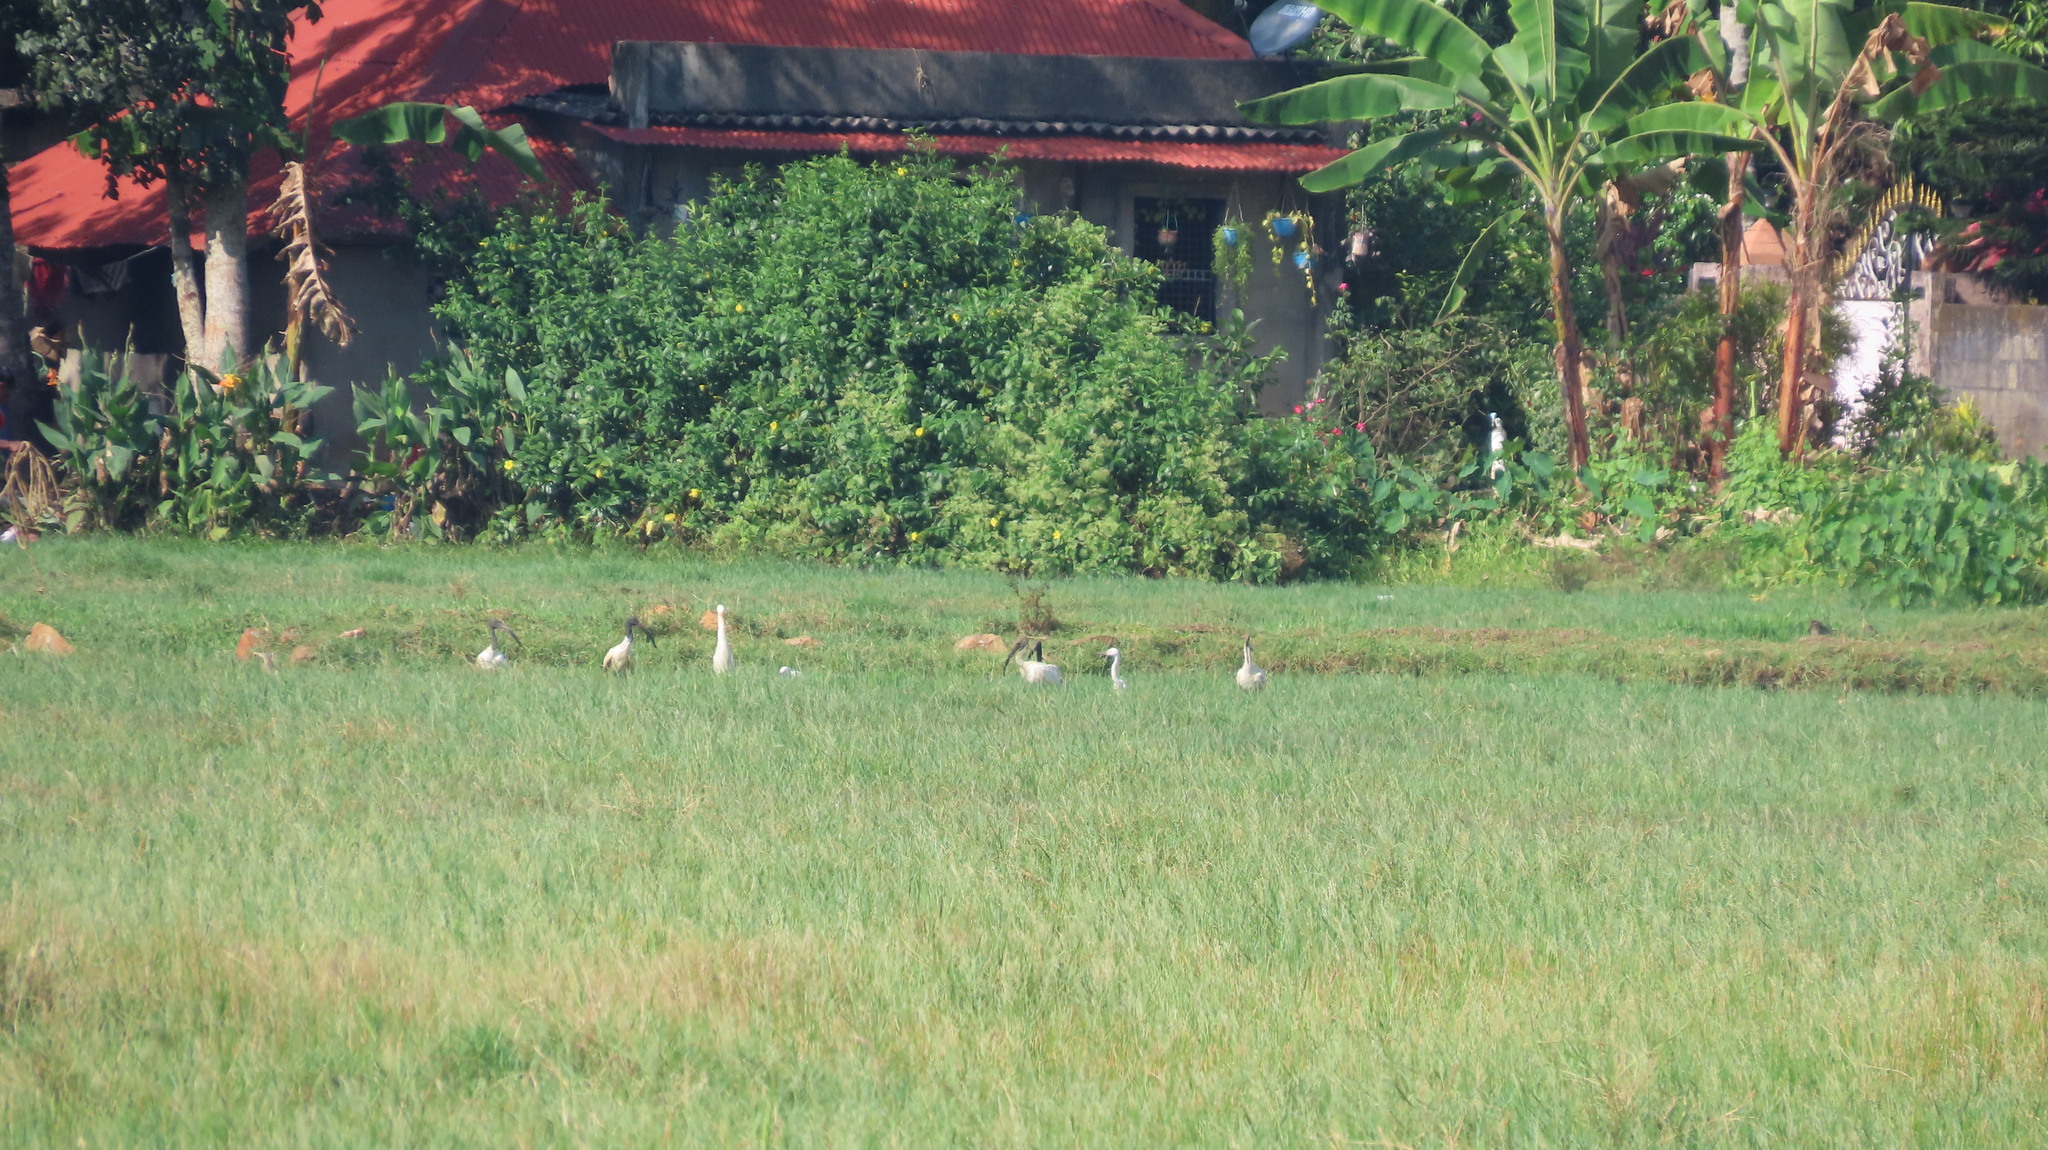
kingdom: Animalia
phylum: Chordata
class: Aves
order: Pelecaniformes
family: Ardeidae
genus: Bubulcus
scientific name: Bubulcus coromandus
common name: Eastern cattle egret
